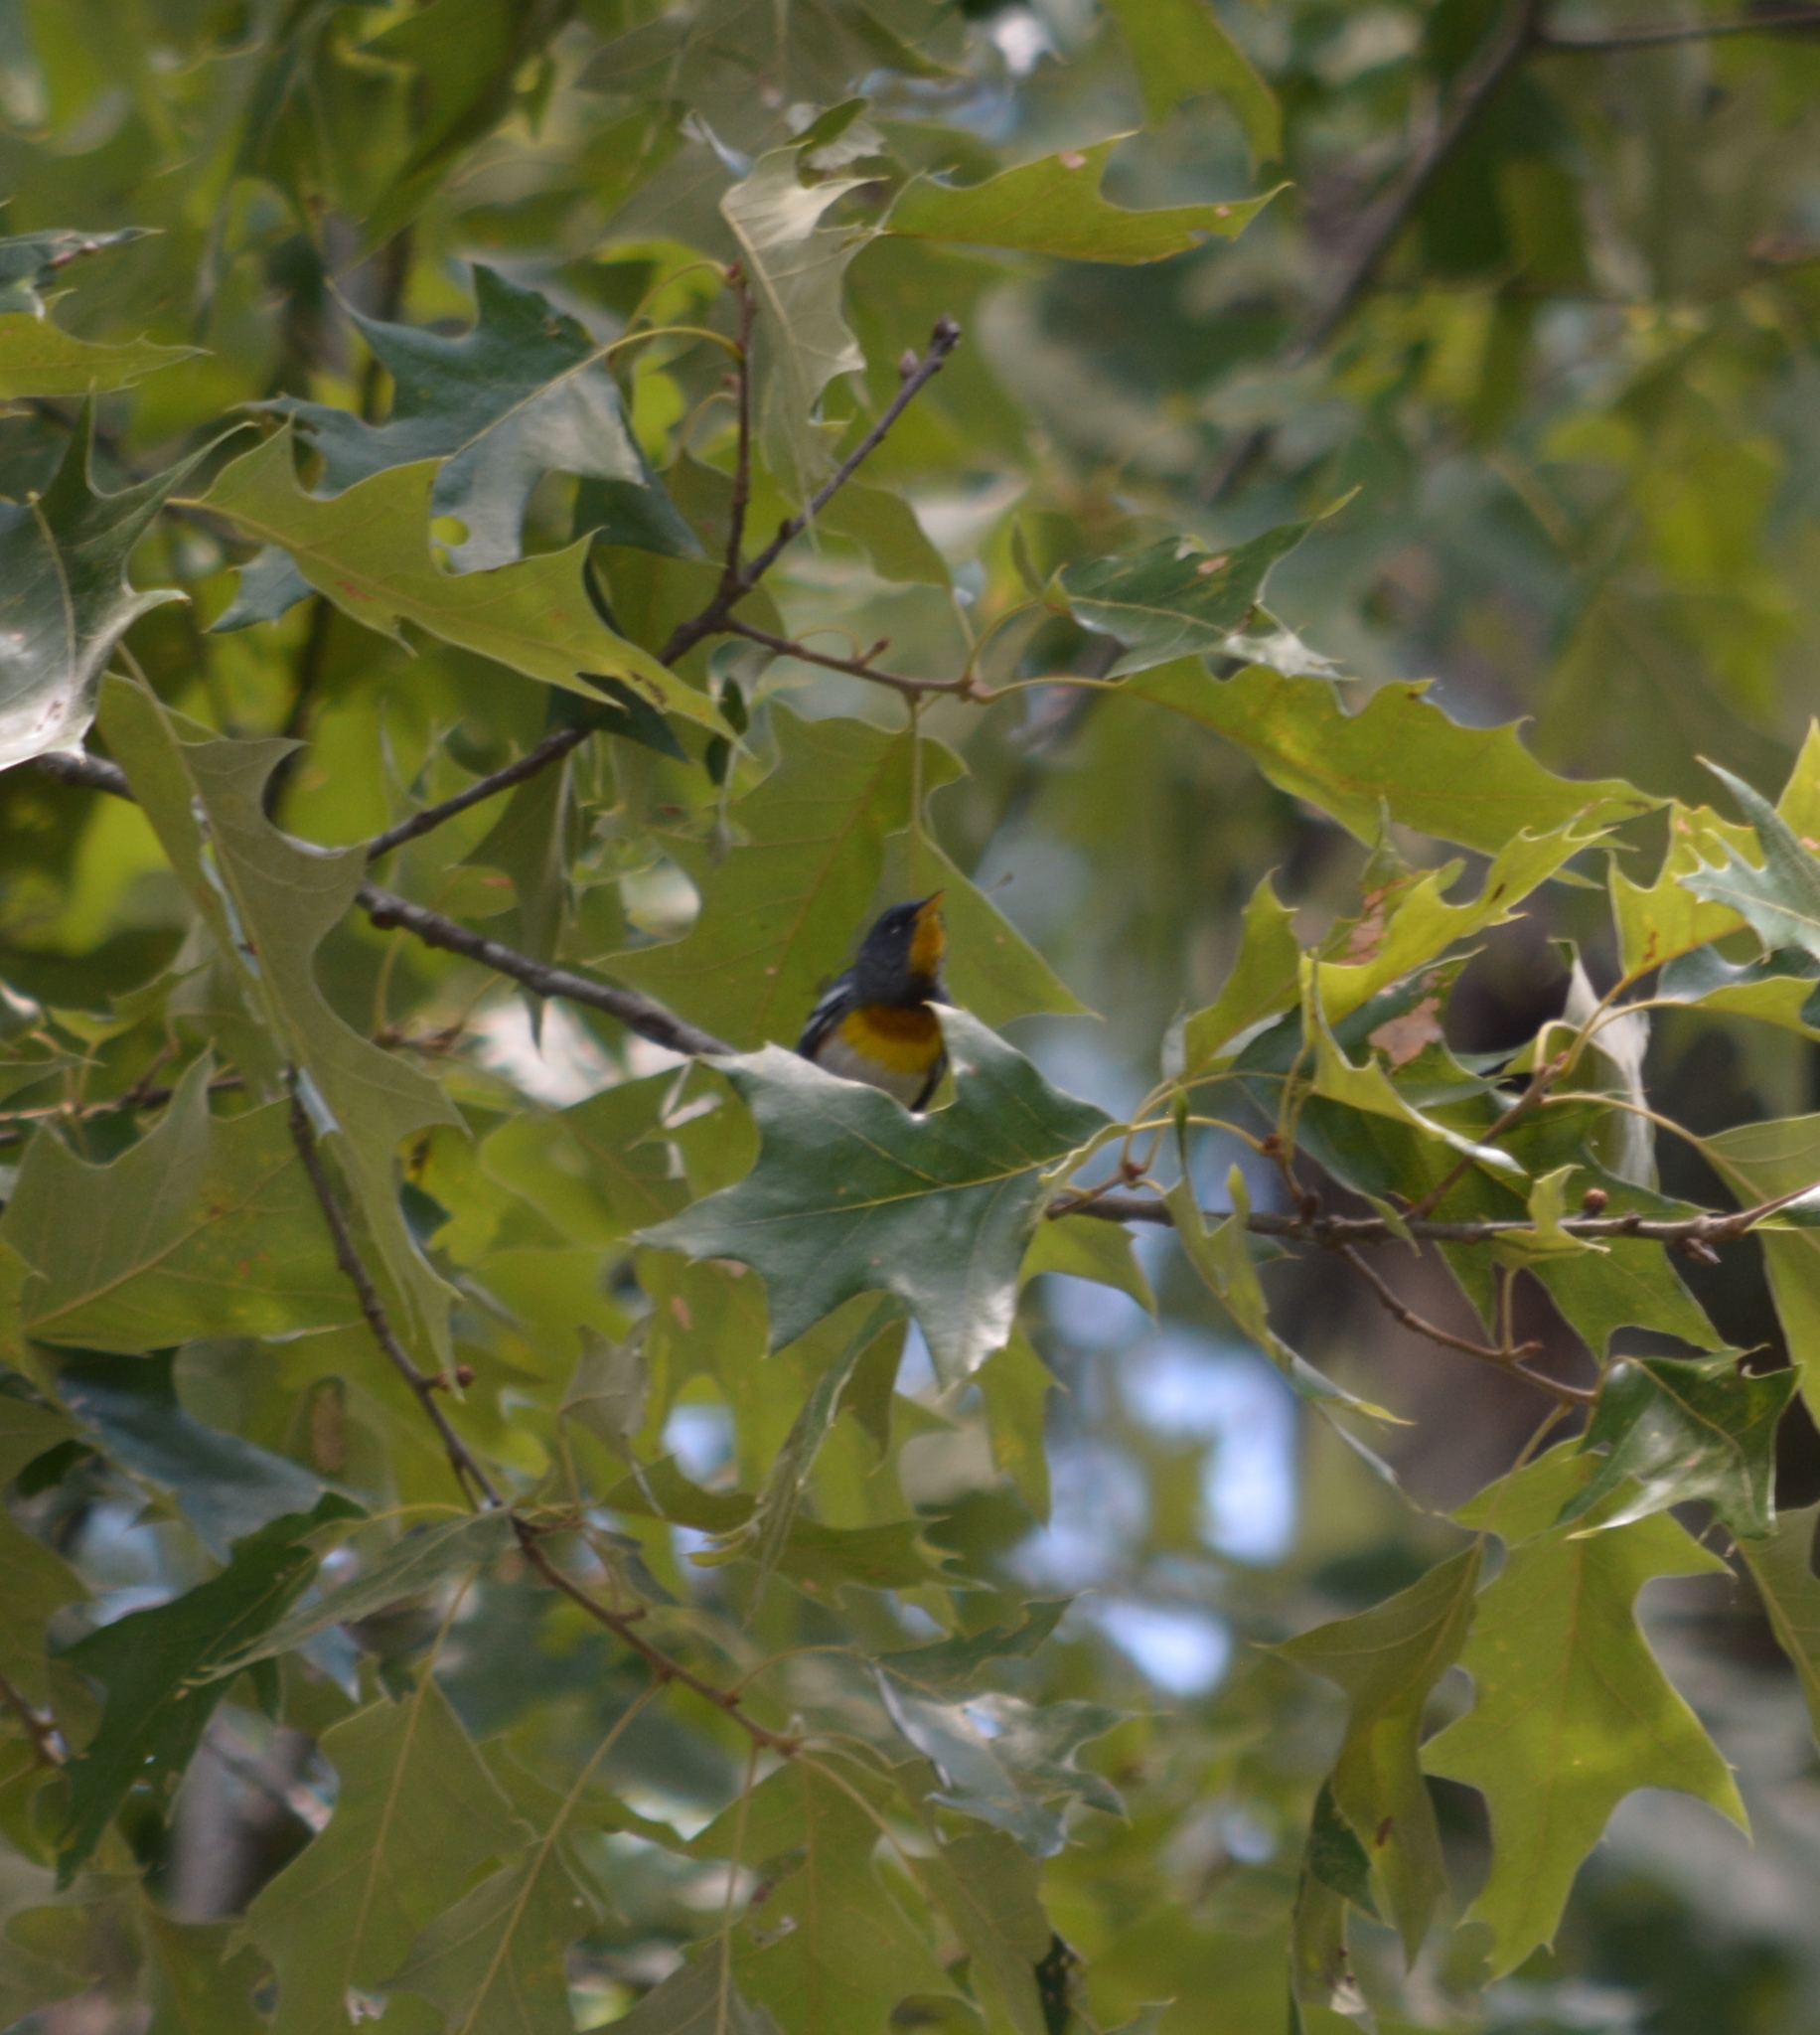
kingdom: Animalia
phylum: Chordata
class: Aves
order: Passeriformes
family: Parulidae
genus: Setophaga
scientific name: Setophaga americana
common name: Northern parula
